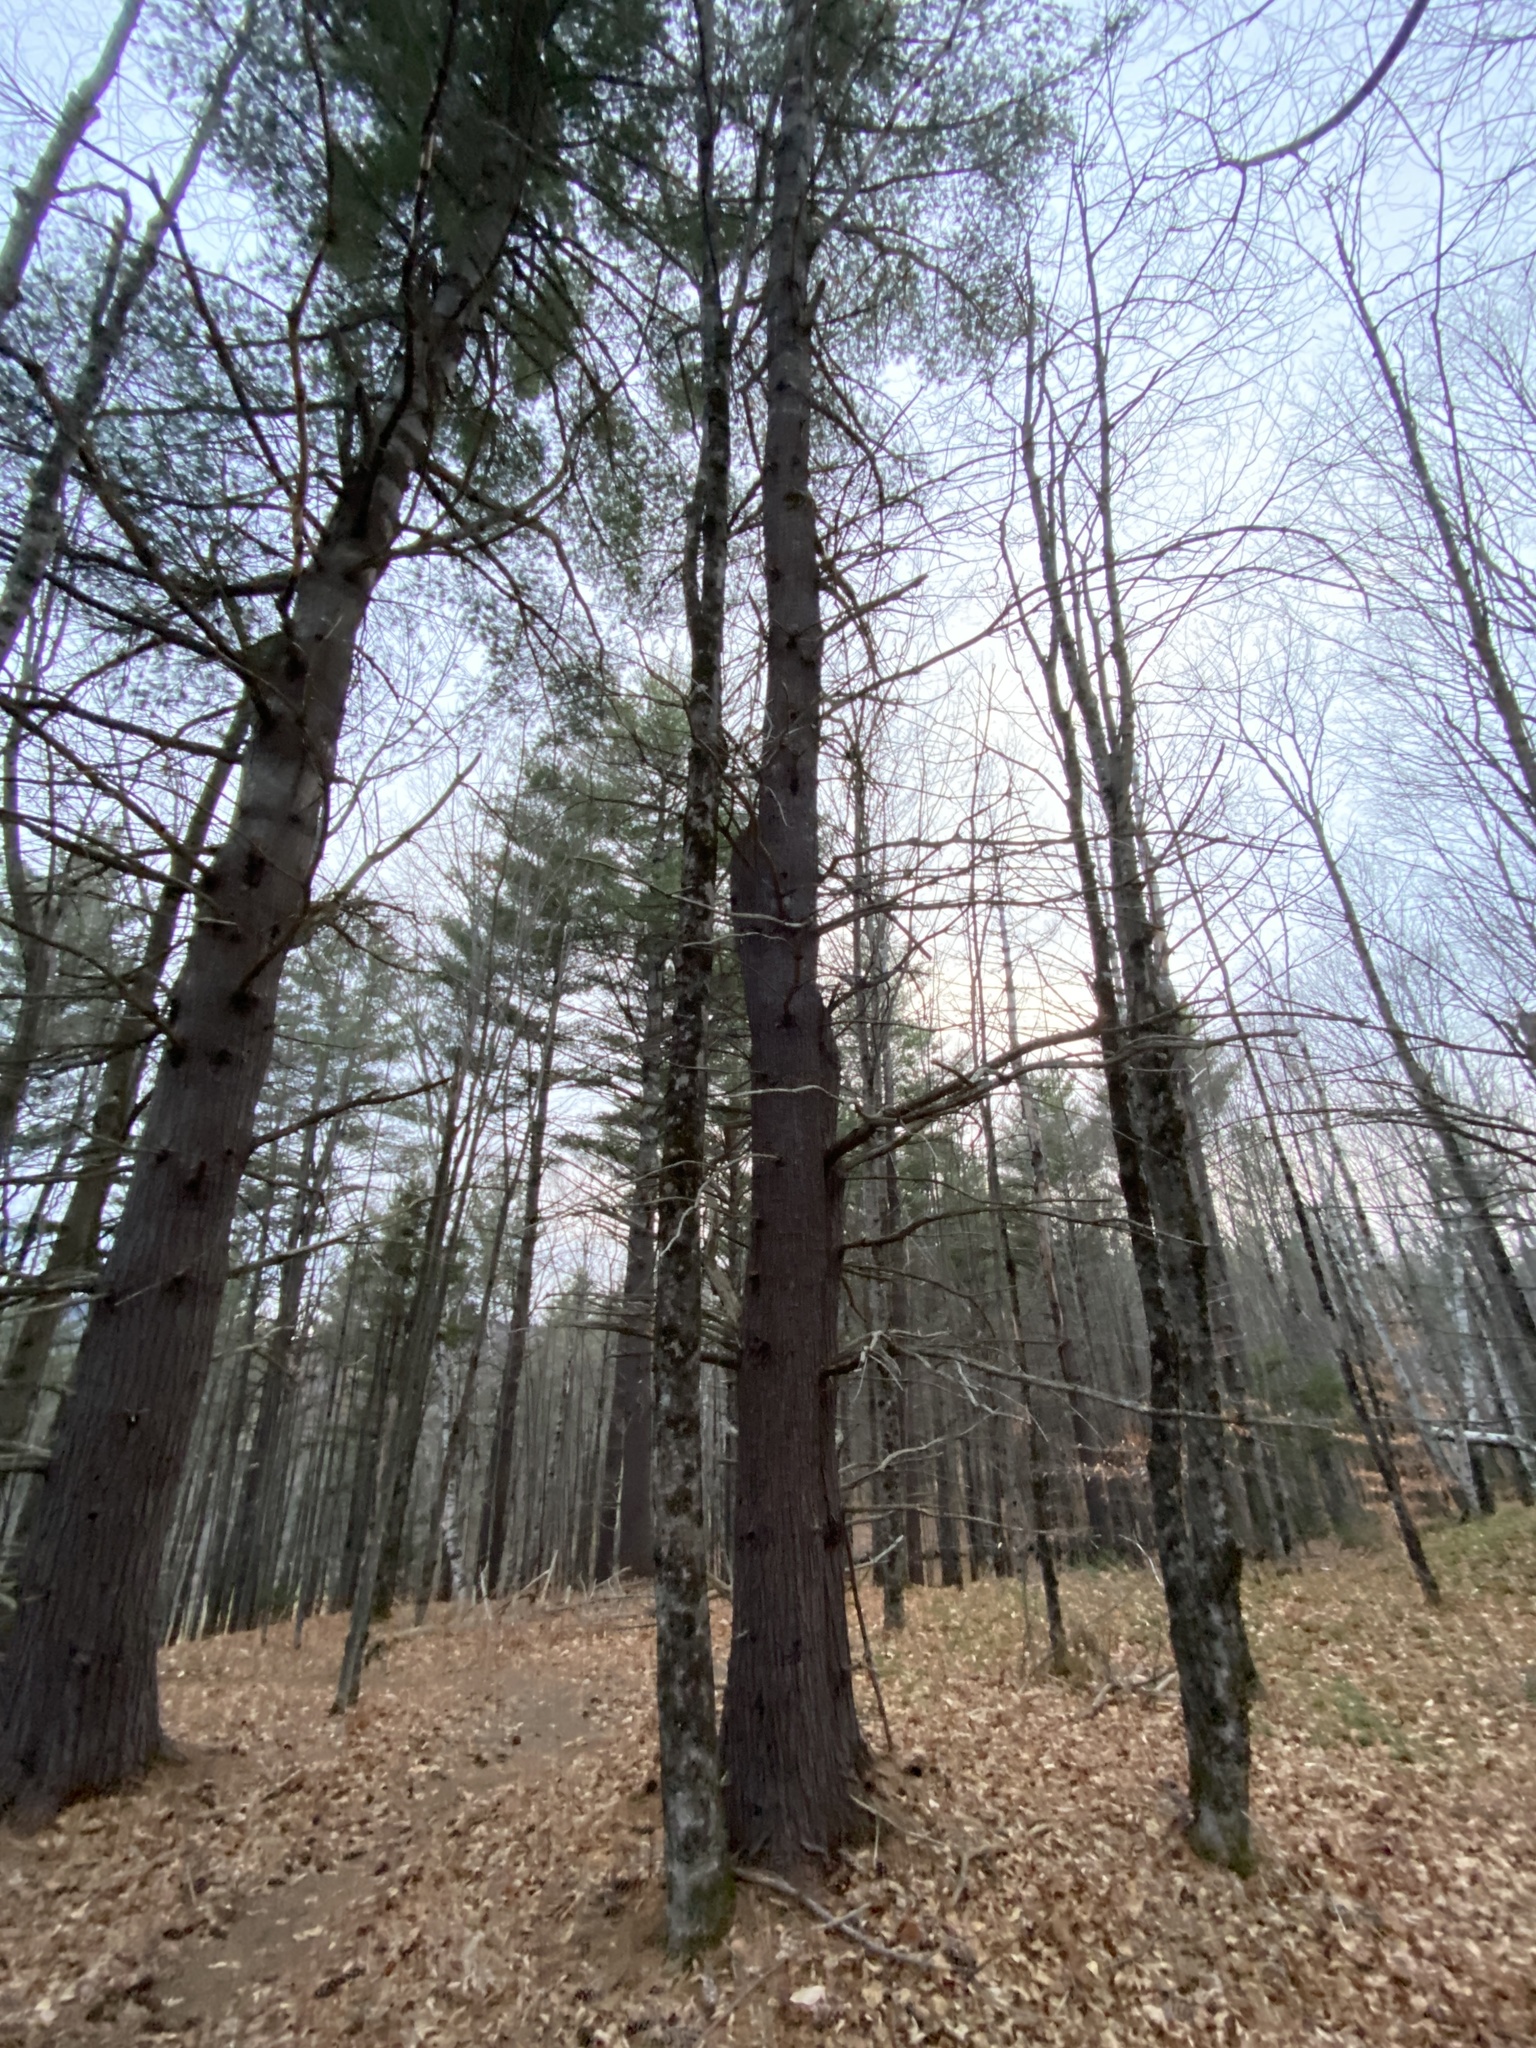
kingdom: Plantae
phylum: Tracheophyta
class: Pinopsida
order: Pinales
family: Pinaceae
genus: Pinus
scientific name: Pinus strobus
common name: Weymouth pine
